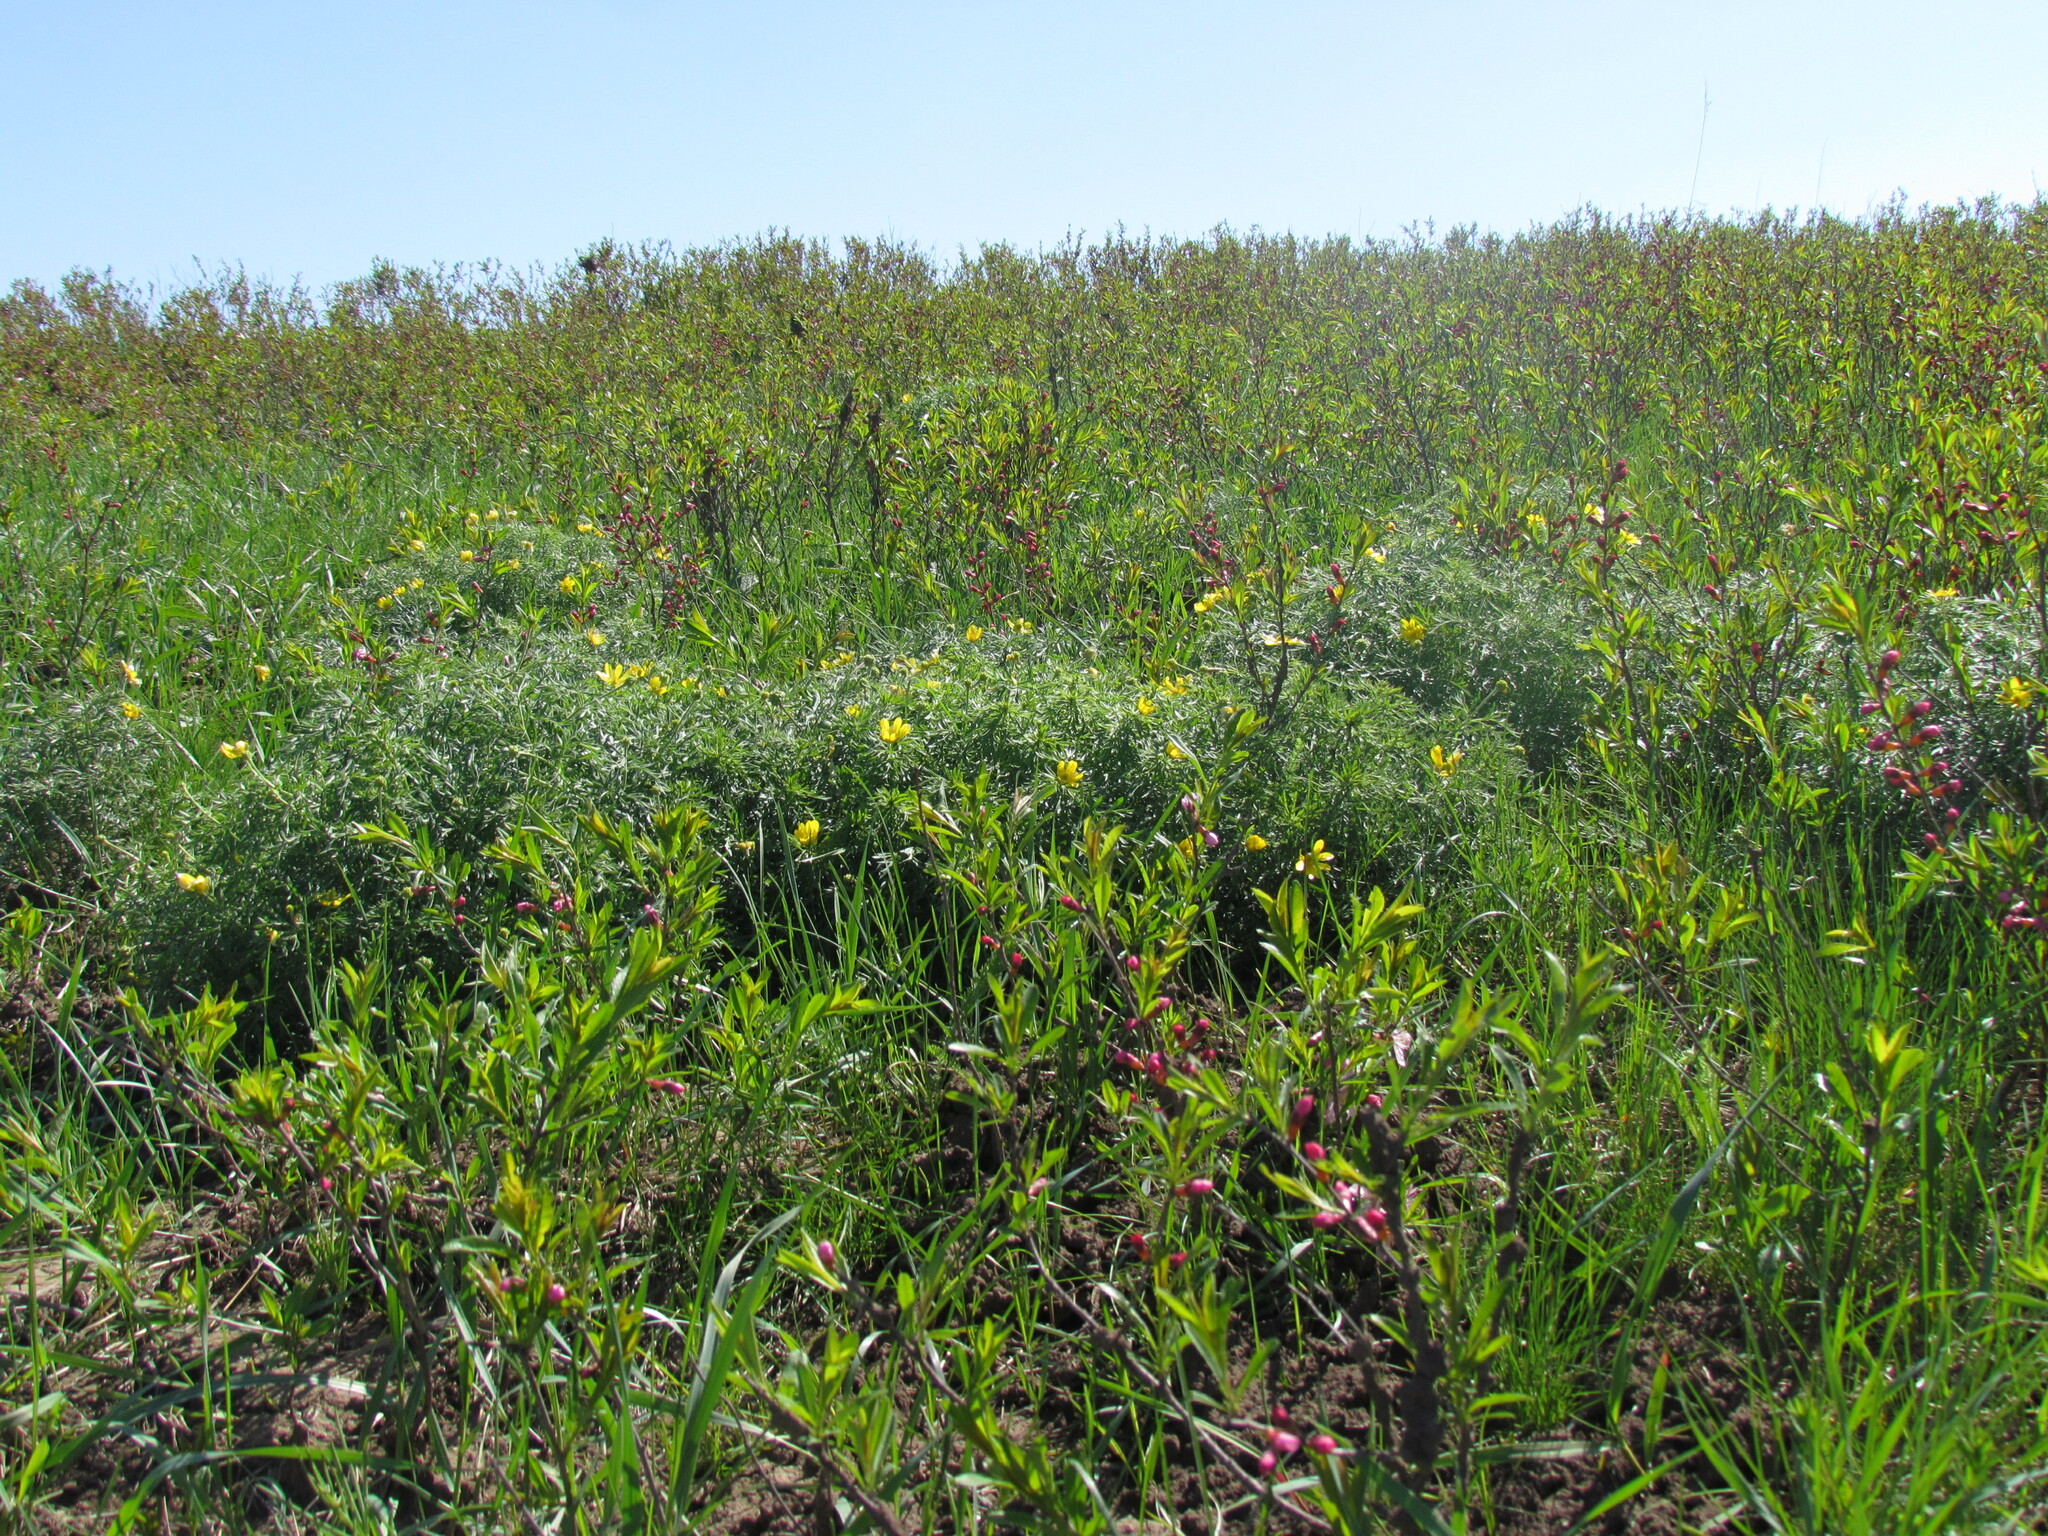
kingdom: Plantae
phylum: Tracheophyta
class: Magnoliopsida
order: Rosales
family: Rosaceae
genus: Prunus
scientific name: Prunus tenella
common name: Dwarf russian almond
